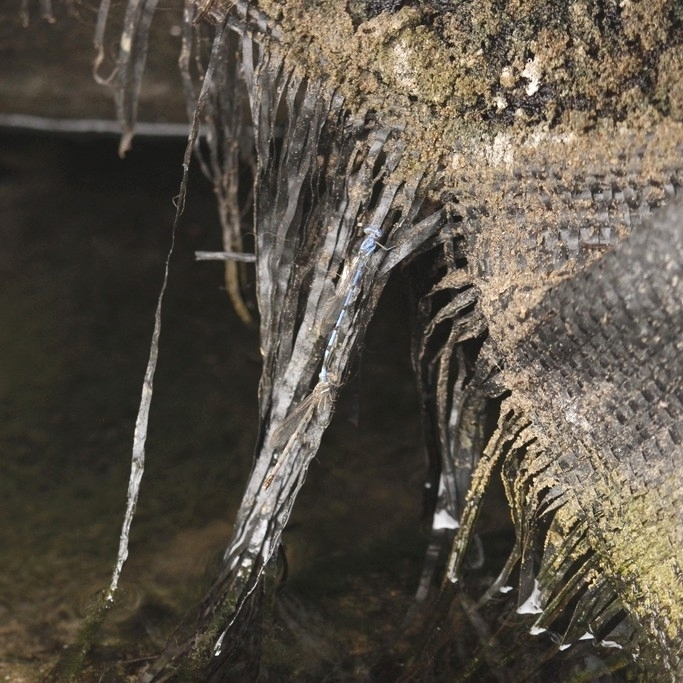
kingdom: Animalia
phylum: Arthropoda
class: Insecta
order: Odonata
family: Coenagrionidae
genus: Argia
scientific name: Argia inculta
